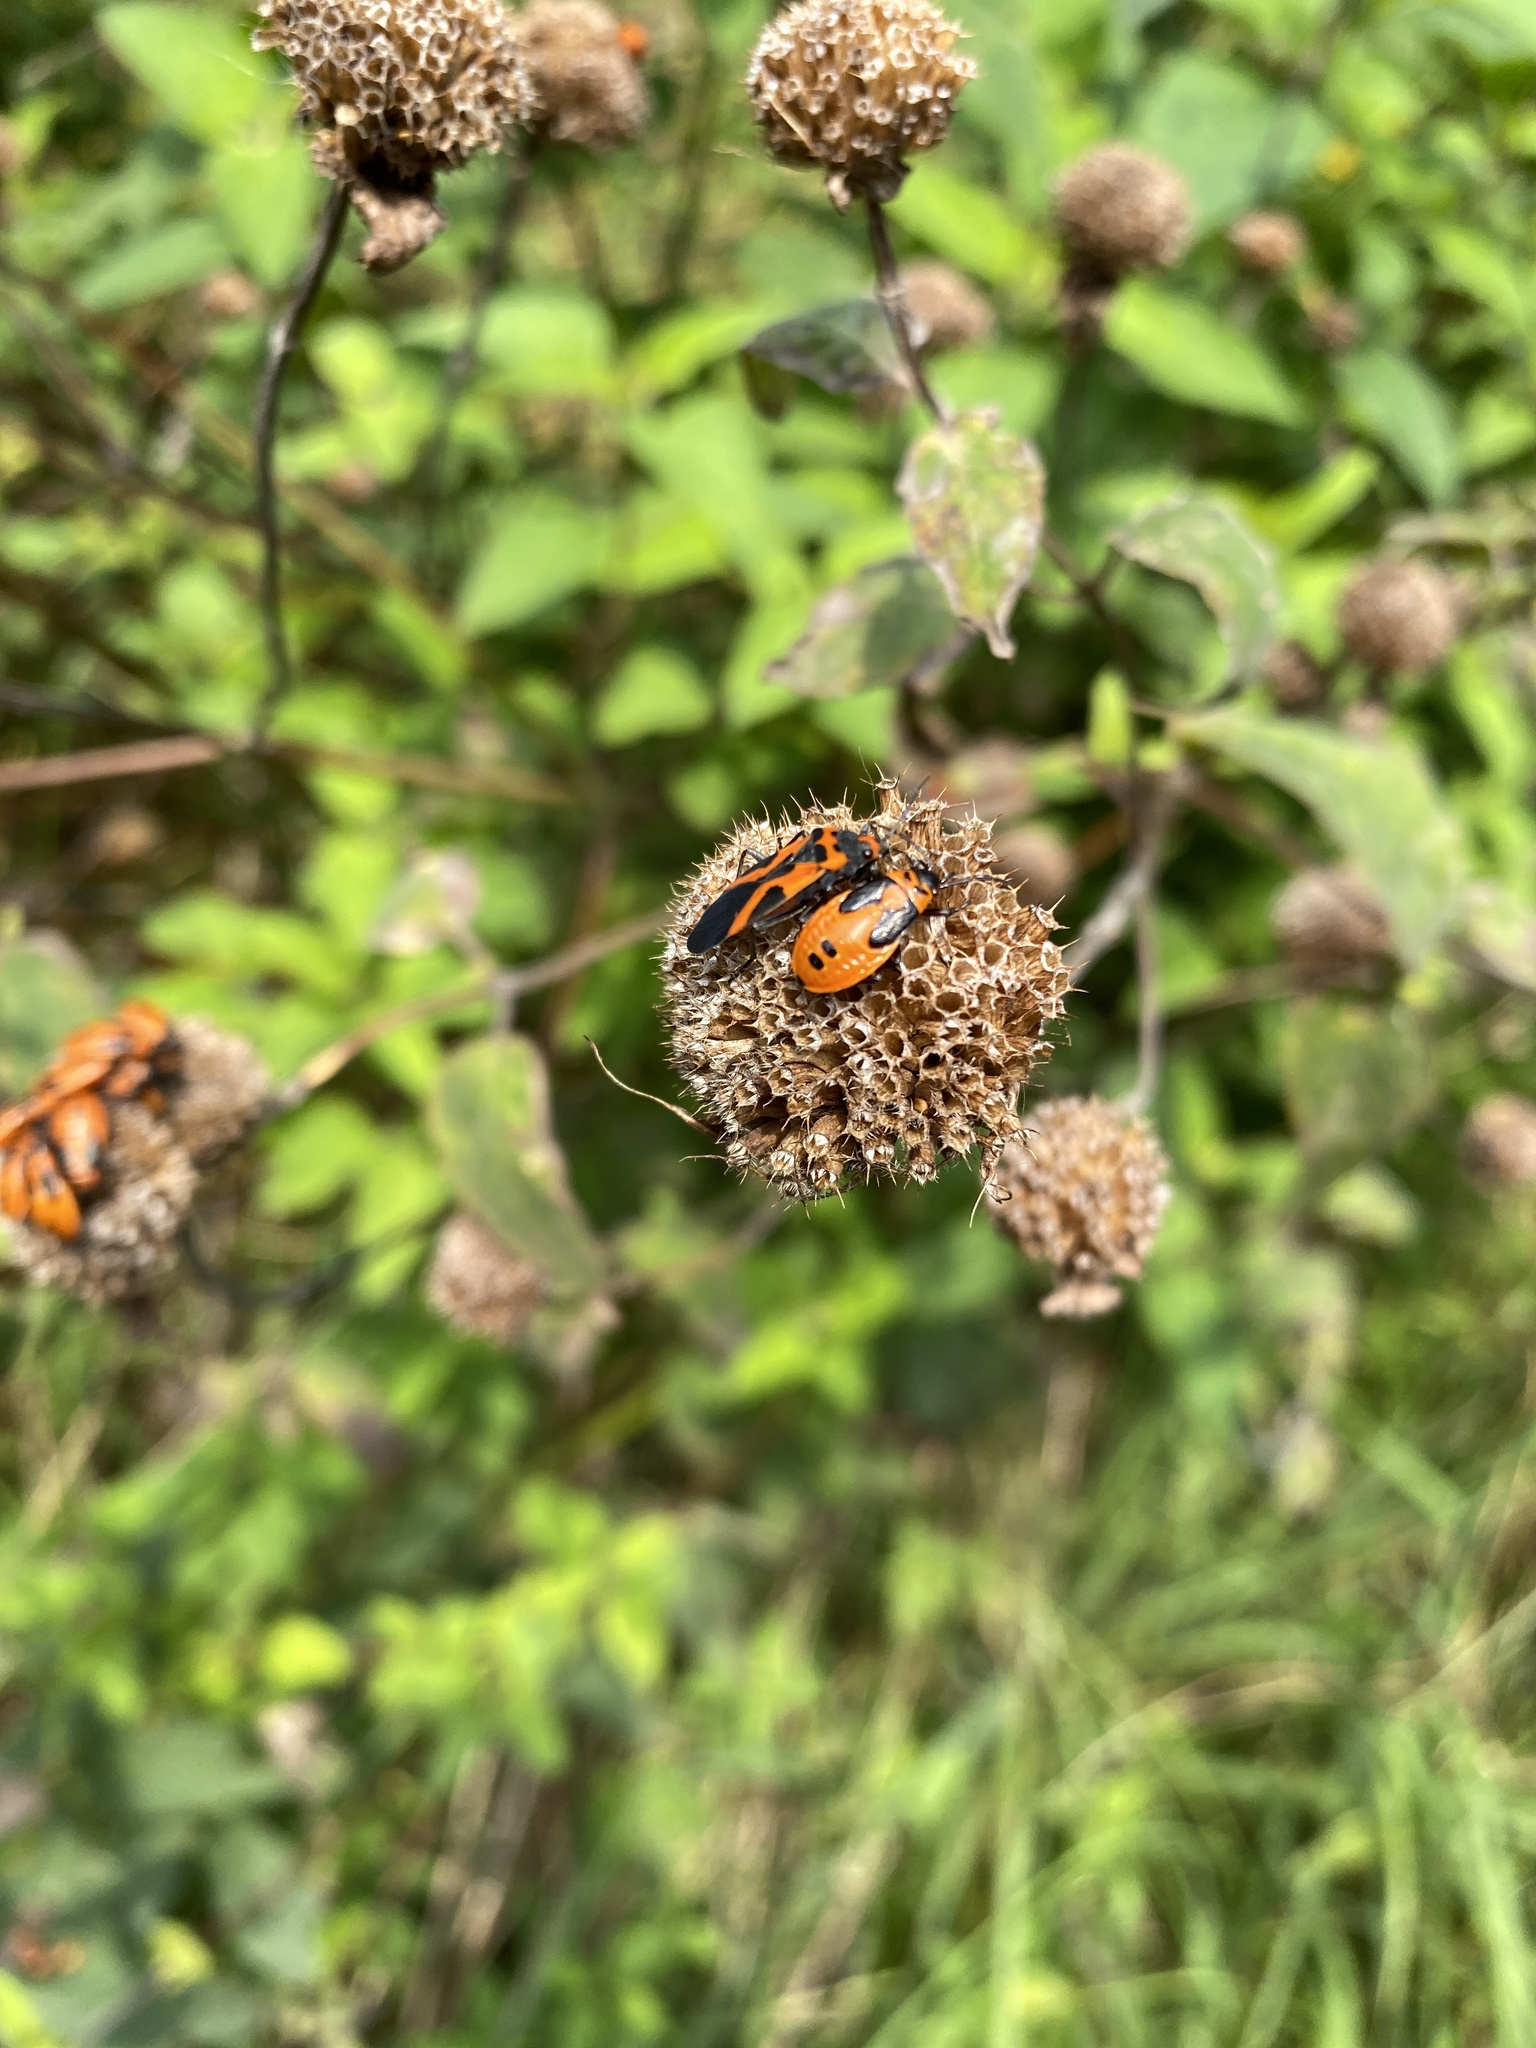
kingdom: Animalia
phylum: Arthropoda
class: Insecta
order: Hemiptera
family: Lygaeidae
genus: Lygaeus
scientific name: Lygaeus turcicus
